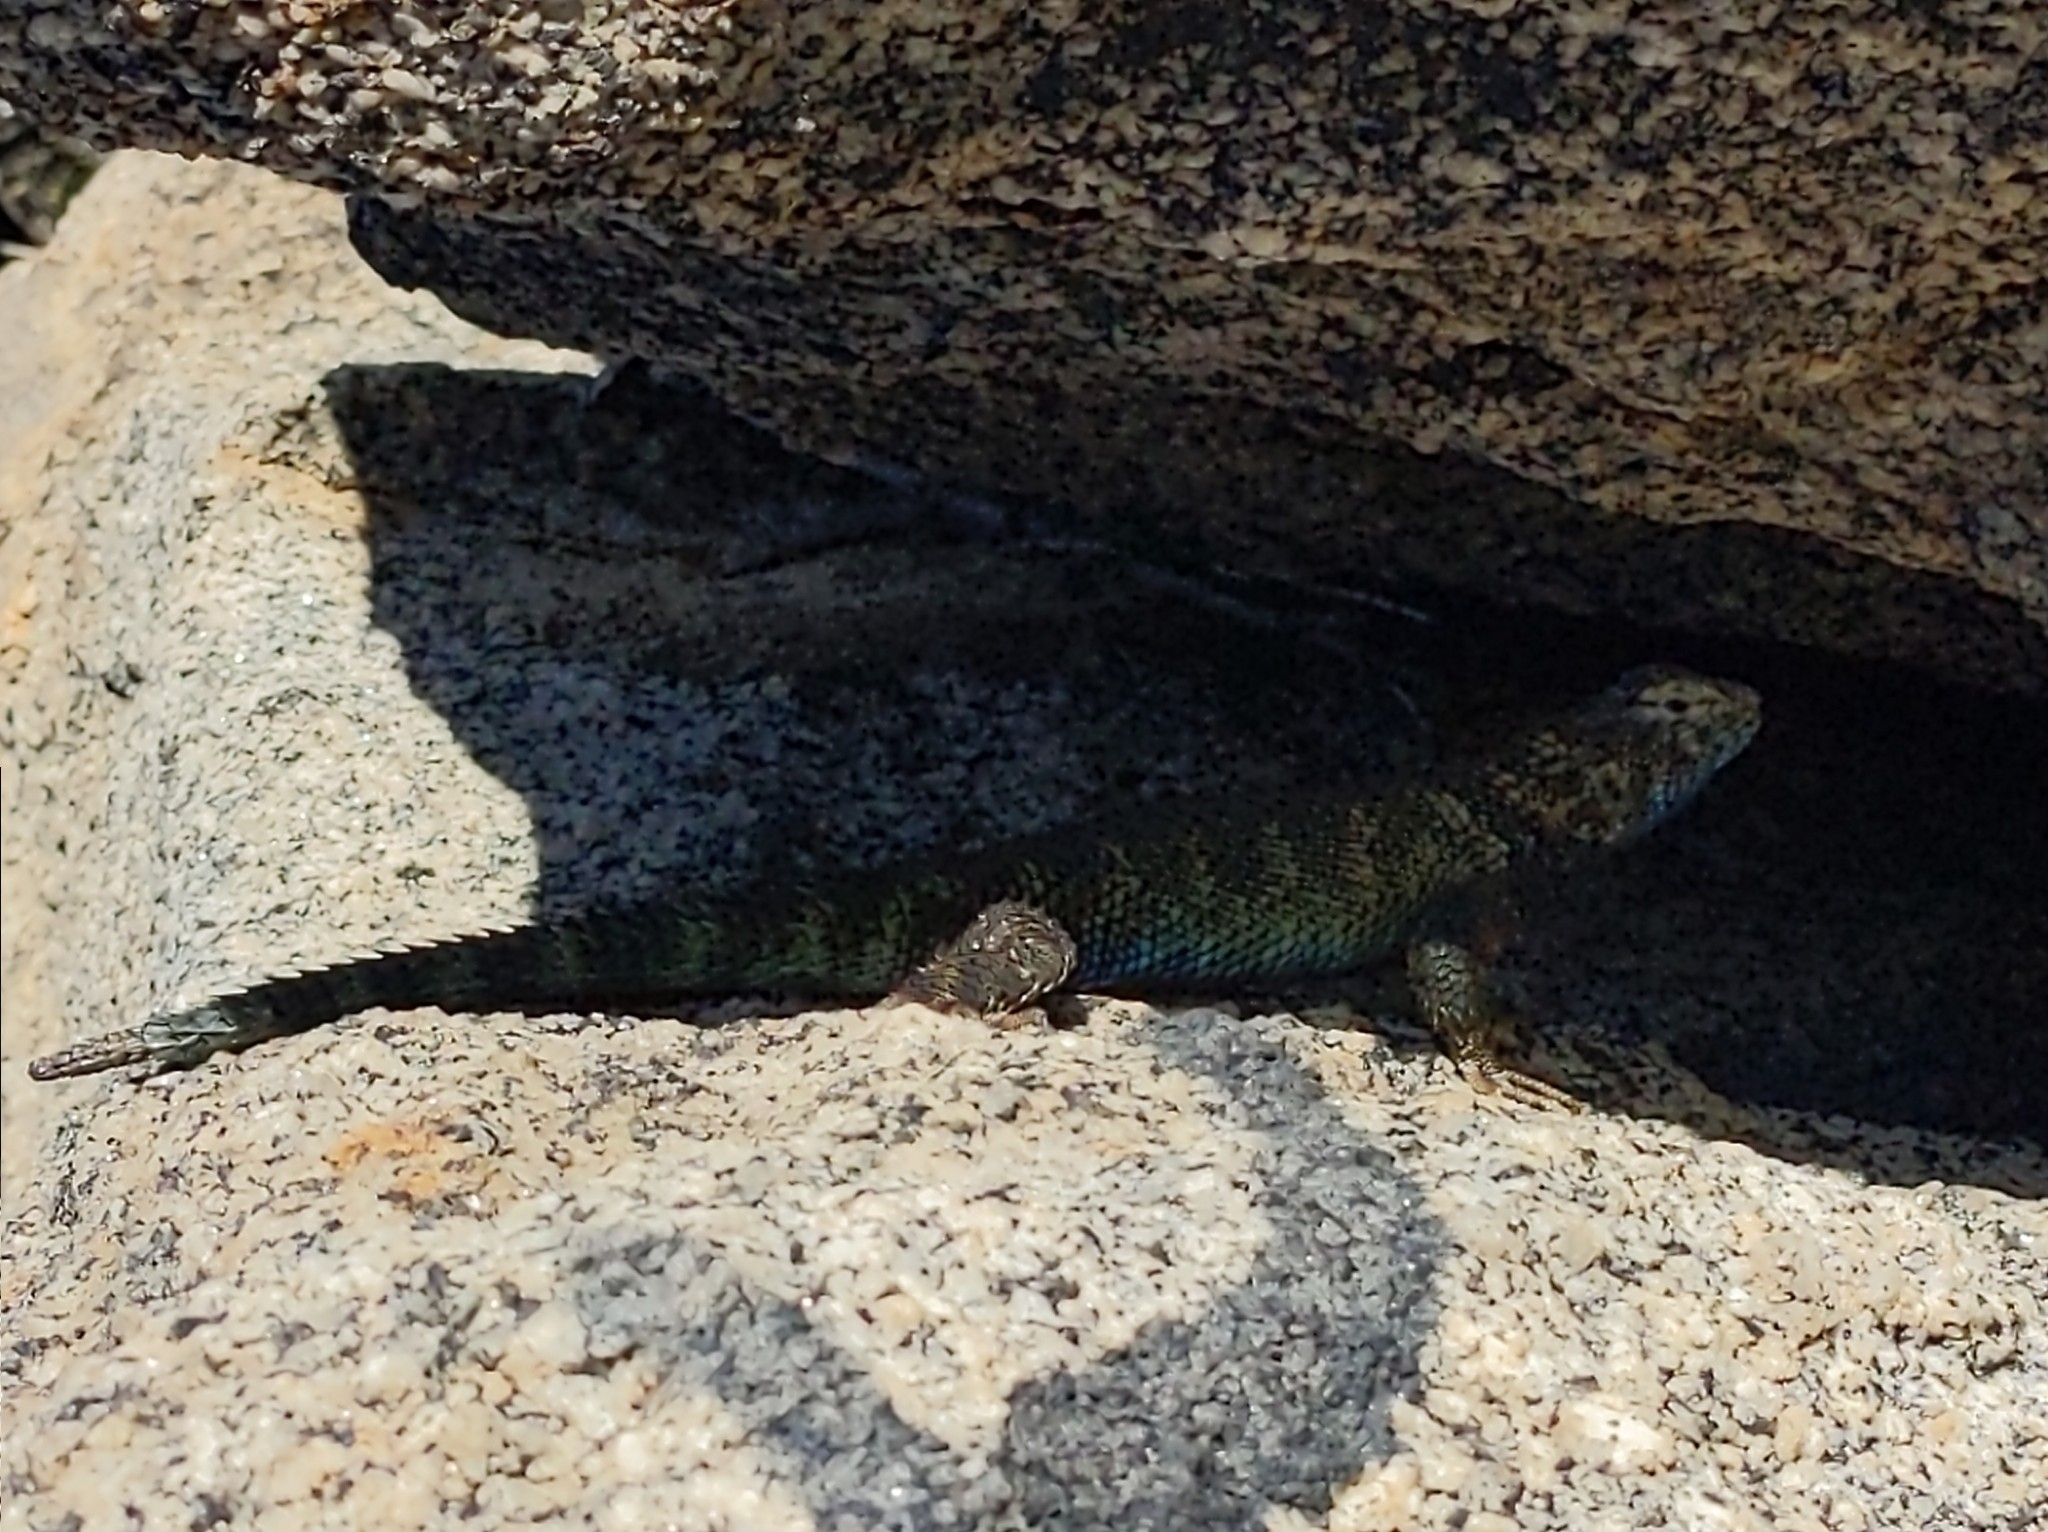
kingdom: Animalia
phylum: Chordata
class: Squamata
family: Phrynosomatidae
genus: Sceloporus
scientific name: Sceloporus orcutti
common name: Granite spiny lizard
